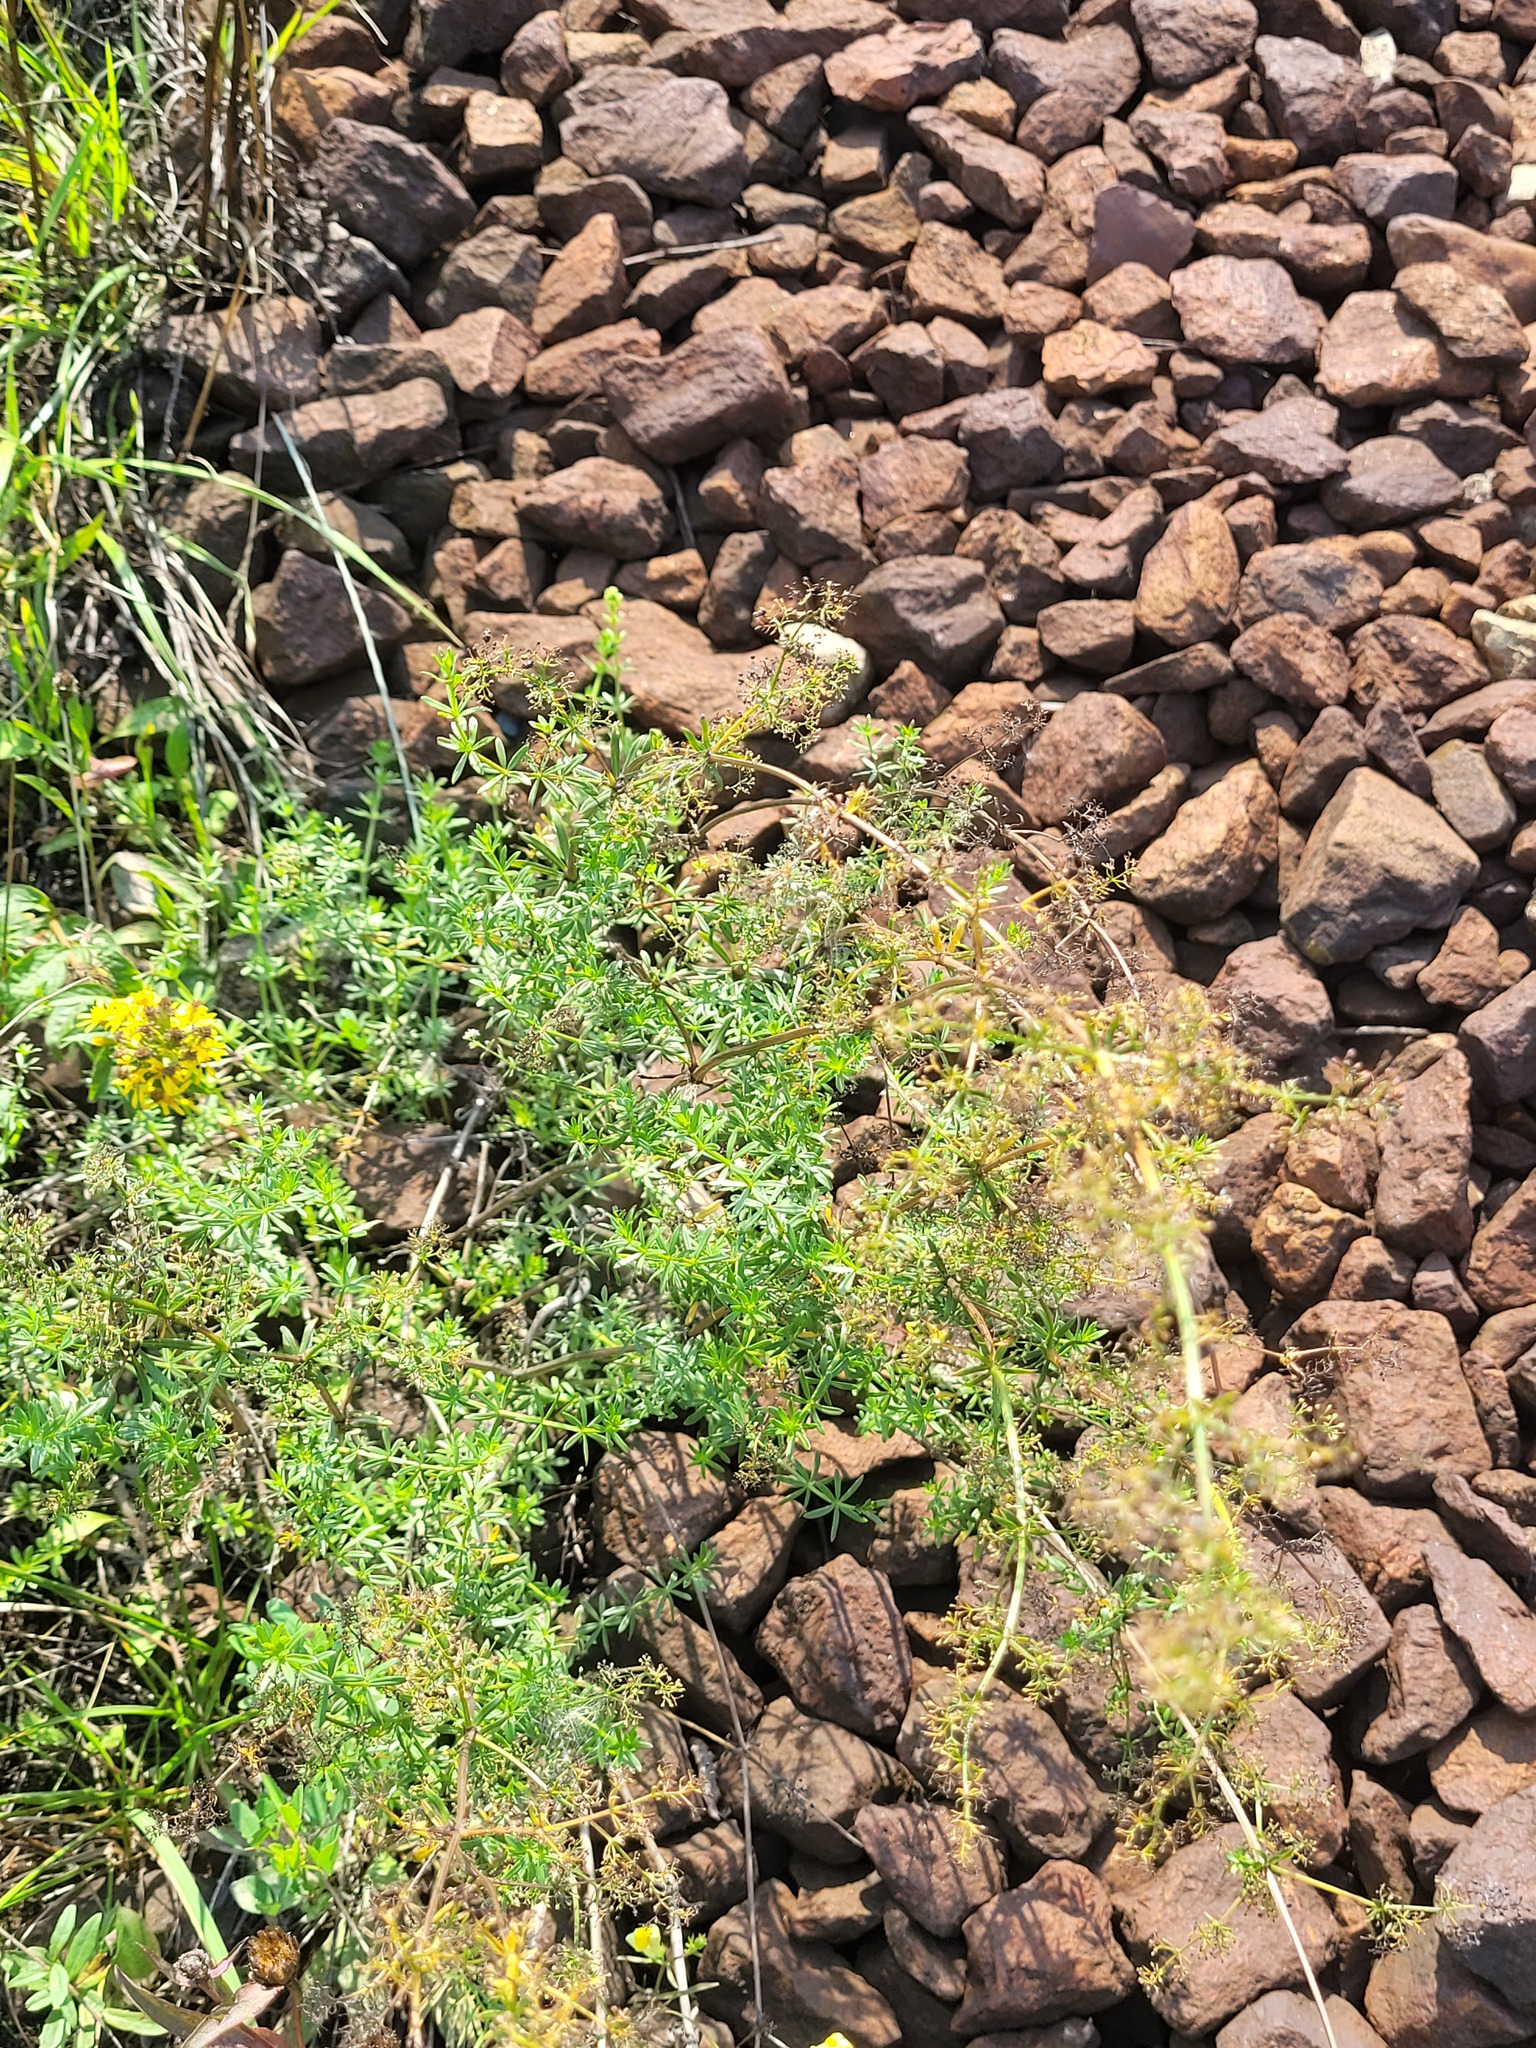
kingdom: Plantae
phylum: Tracheophyta
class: Magnoliopsida
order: Gentianales
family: Rubiaceae
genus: Galium
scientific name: Galium mollugo
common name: Hedge bedstraw
